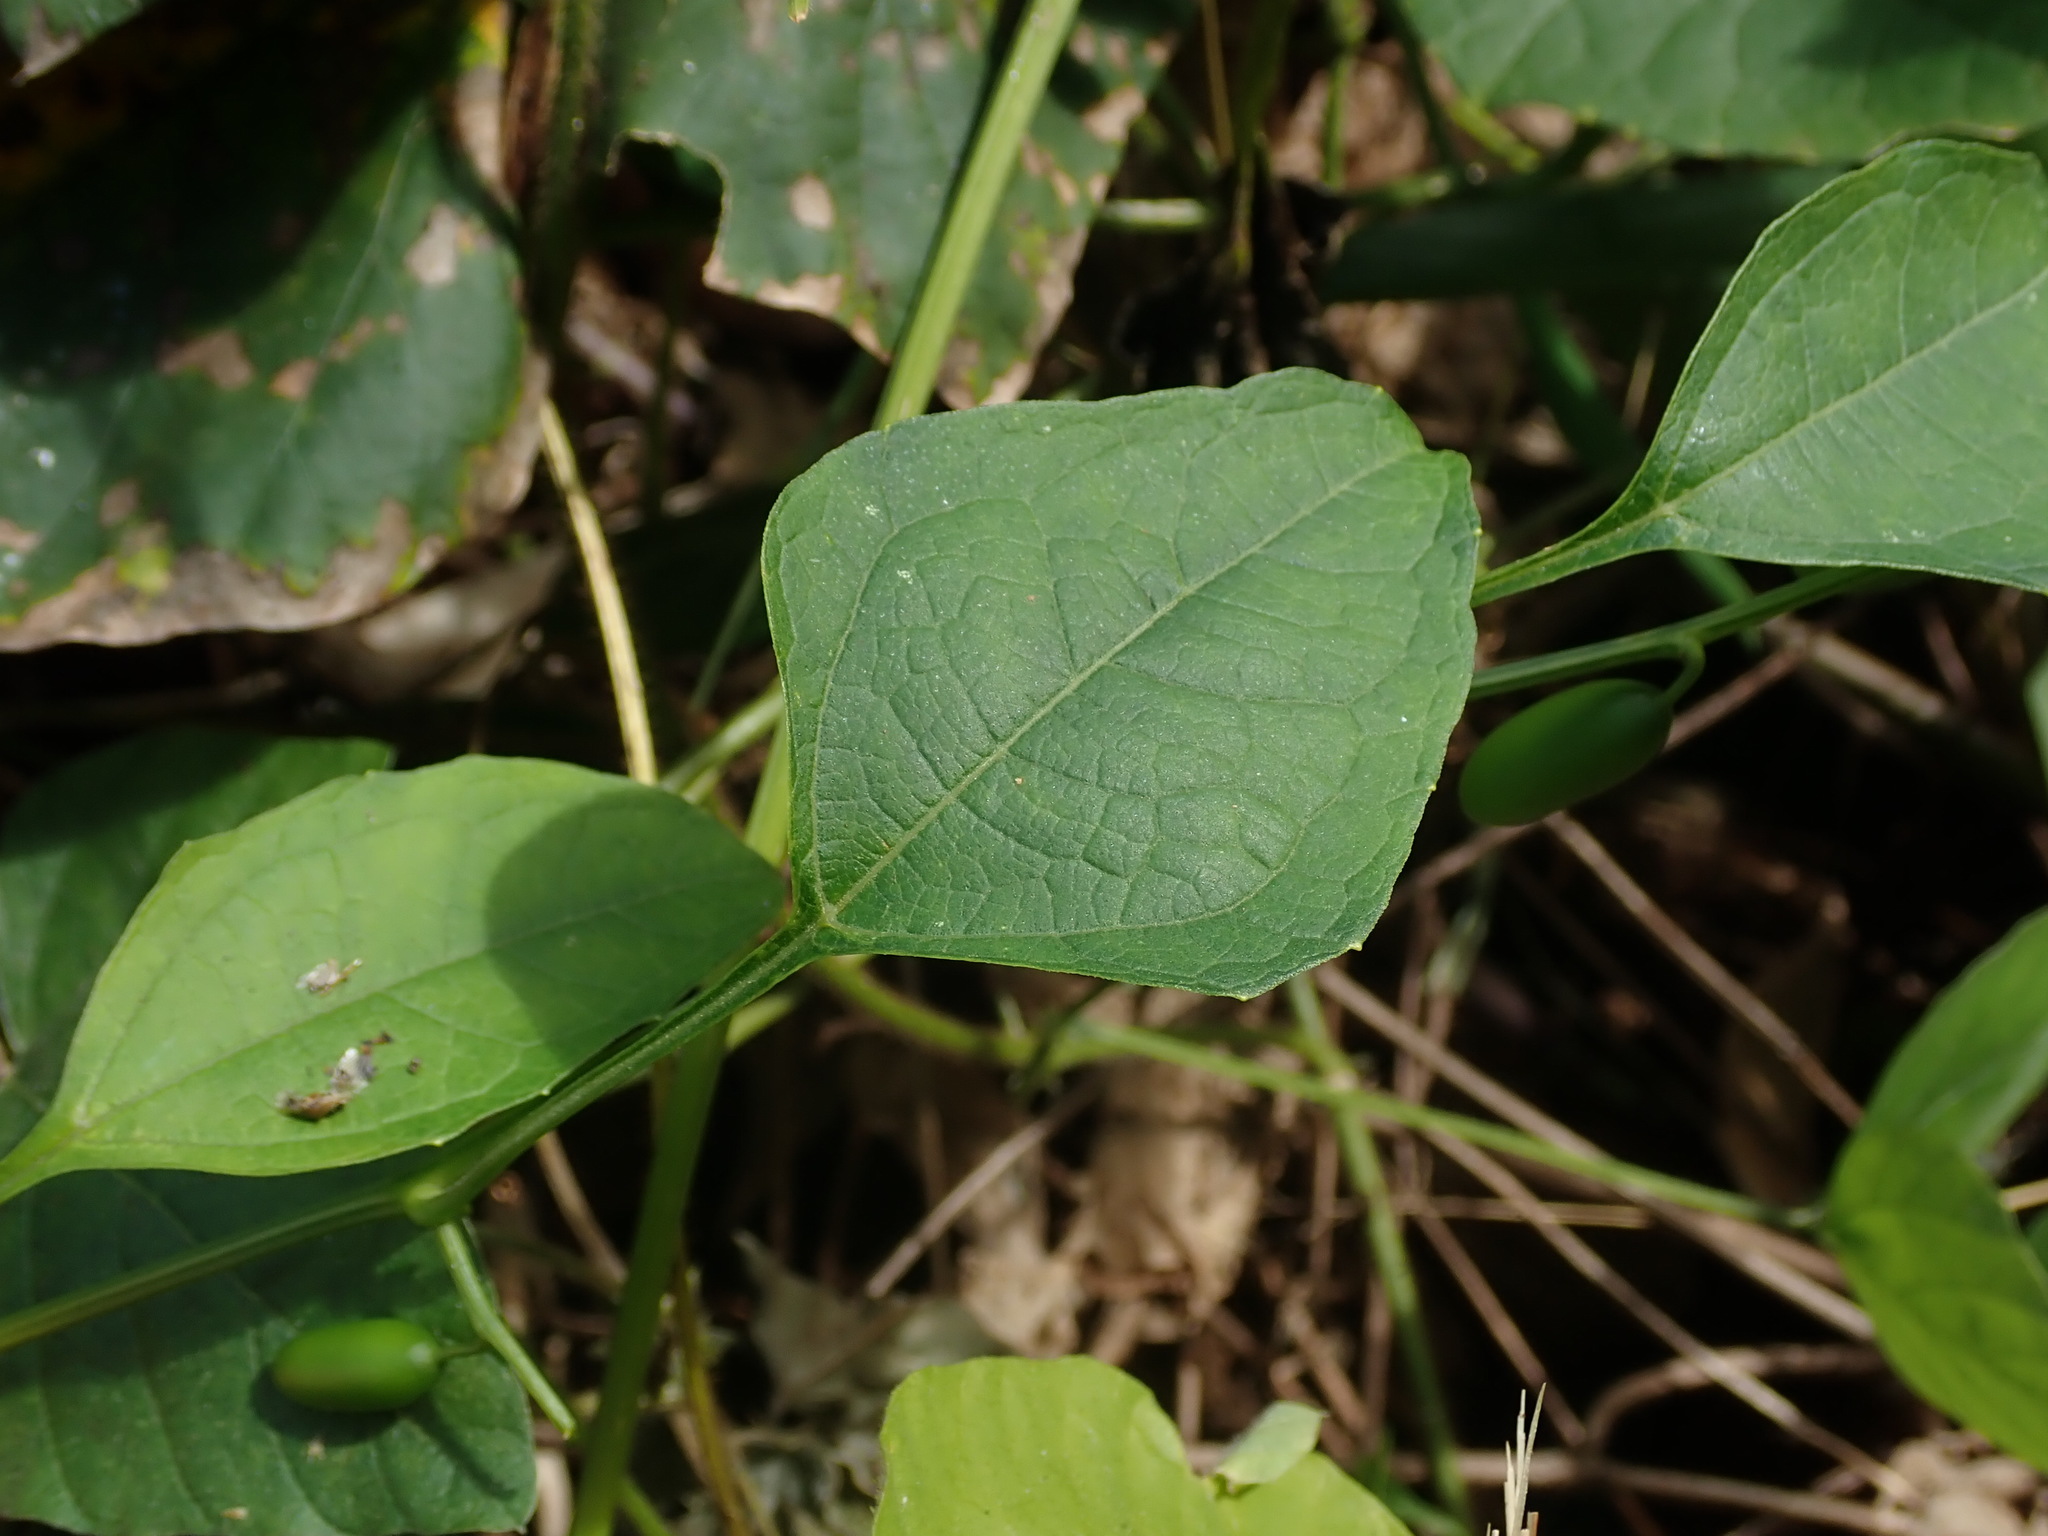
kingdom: Plantae
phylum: Tracheophyta
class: Magnoliopsida
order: Cucurbitales
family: Cucurbitaceae
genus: Cayaponia
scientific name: Cayaponia racemosa
